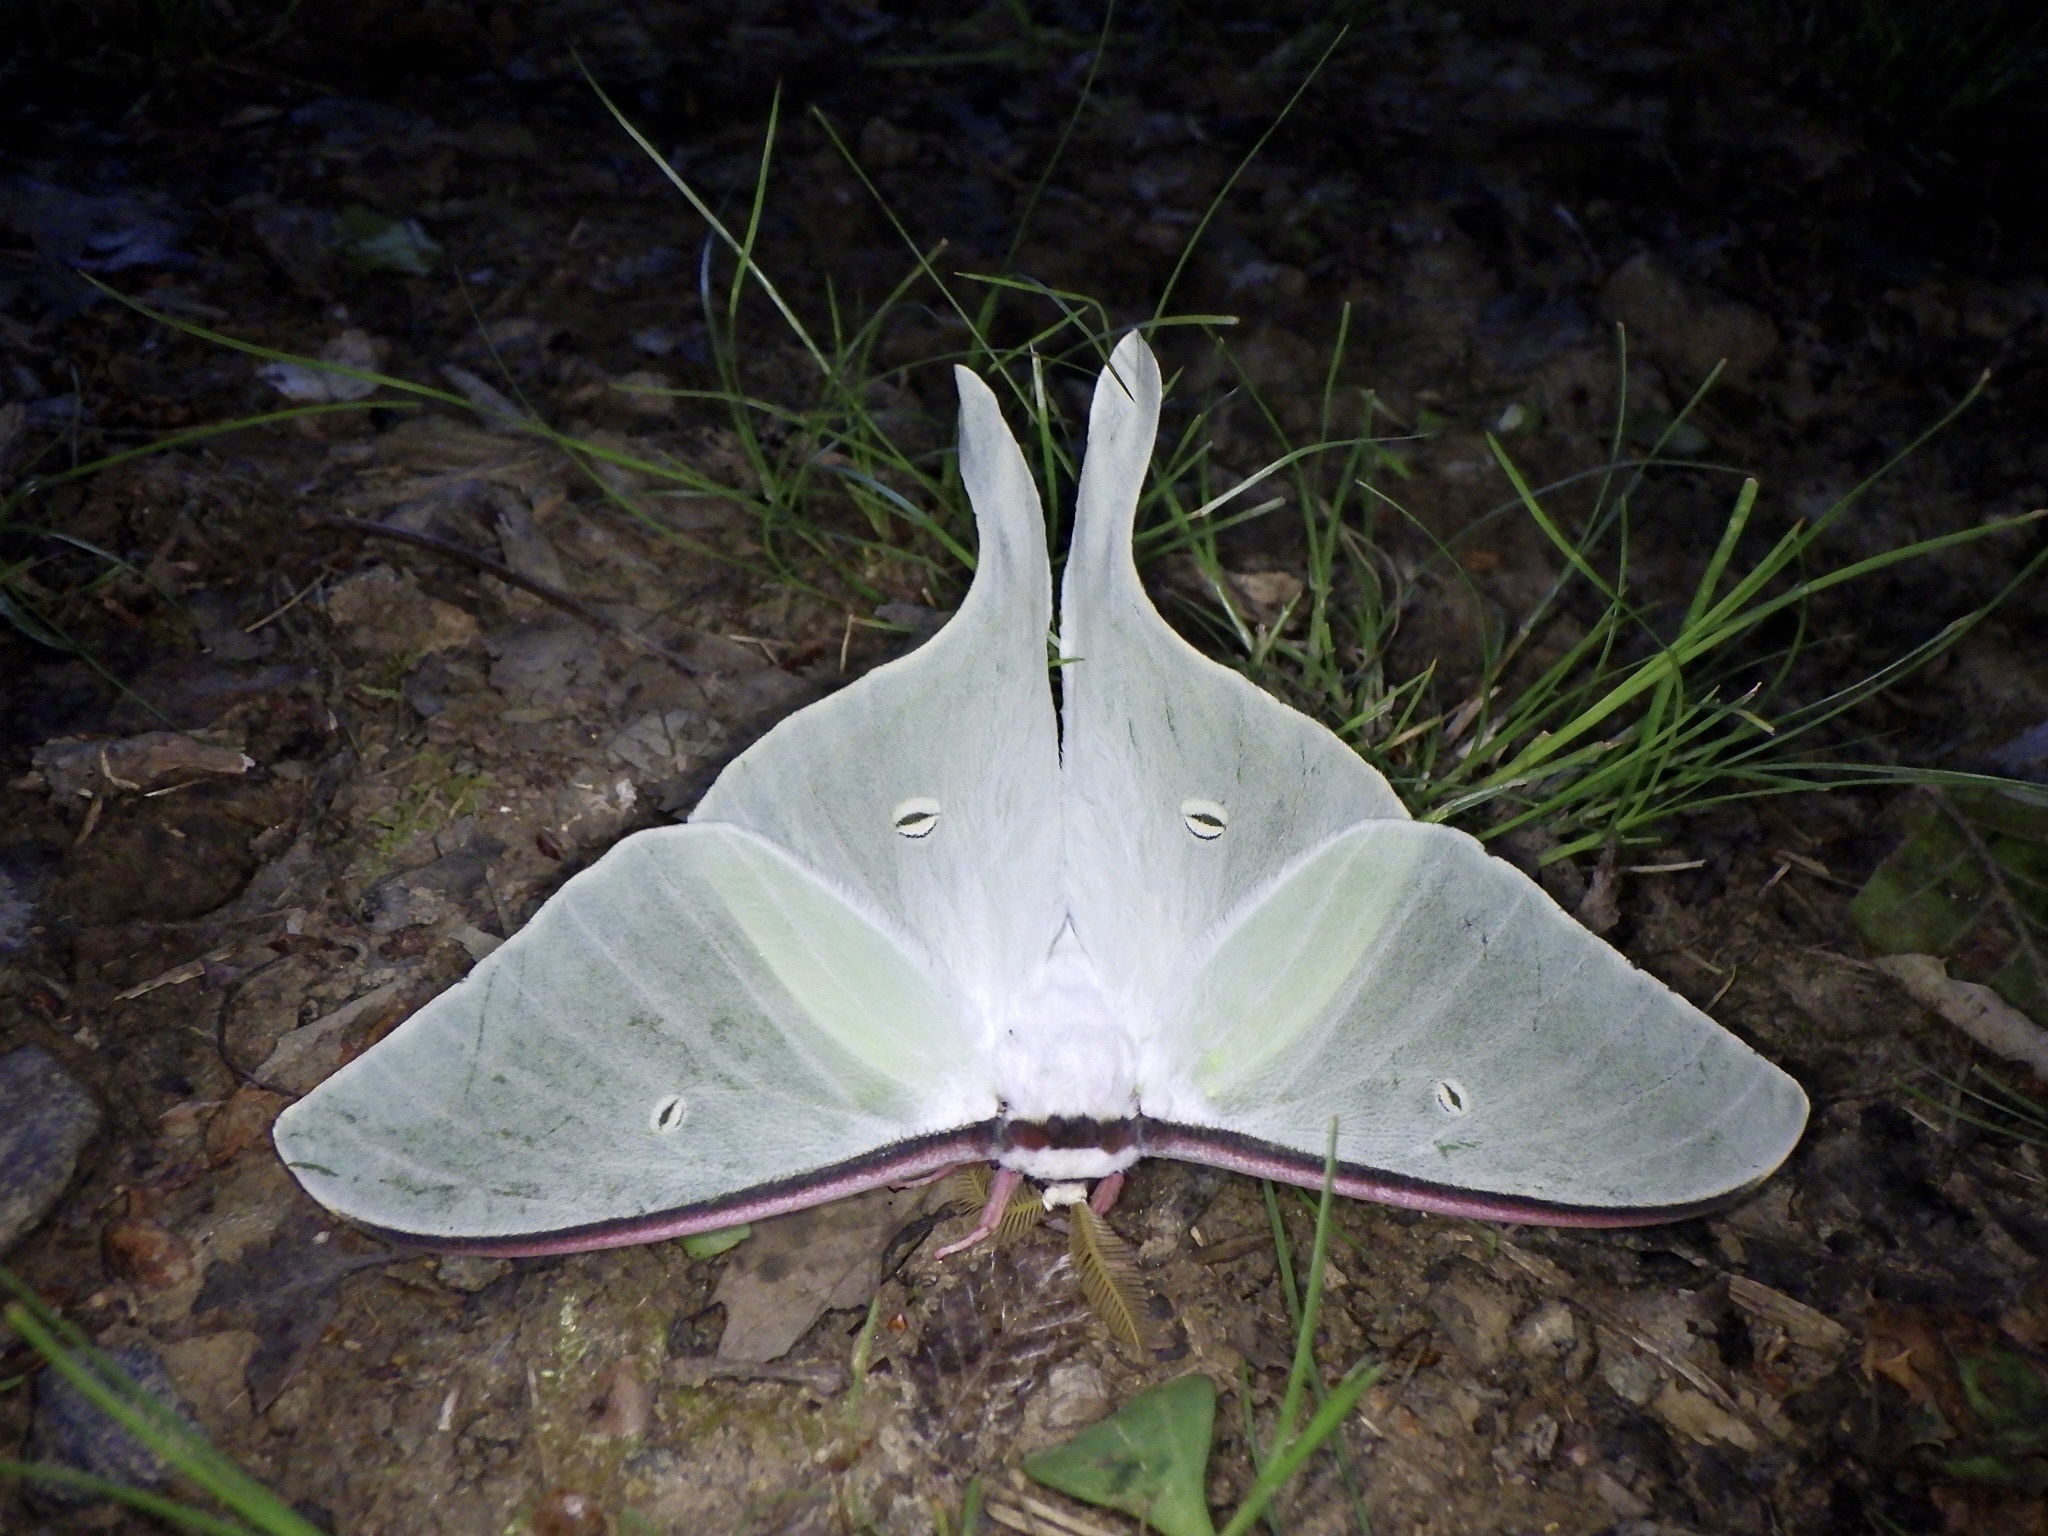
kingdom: Animalia
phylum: Arthropoda
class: Insecta
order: Lepidoptera
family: Saturniidae
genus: Actias
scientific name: Actias aliena
